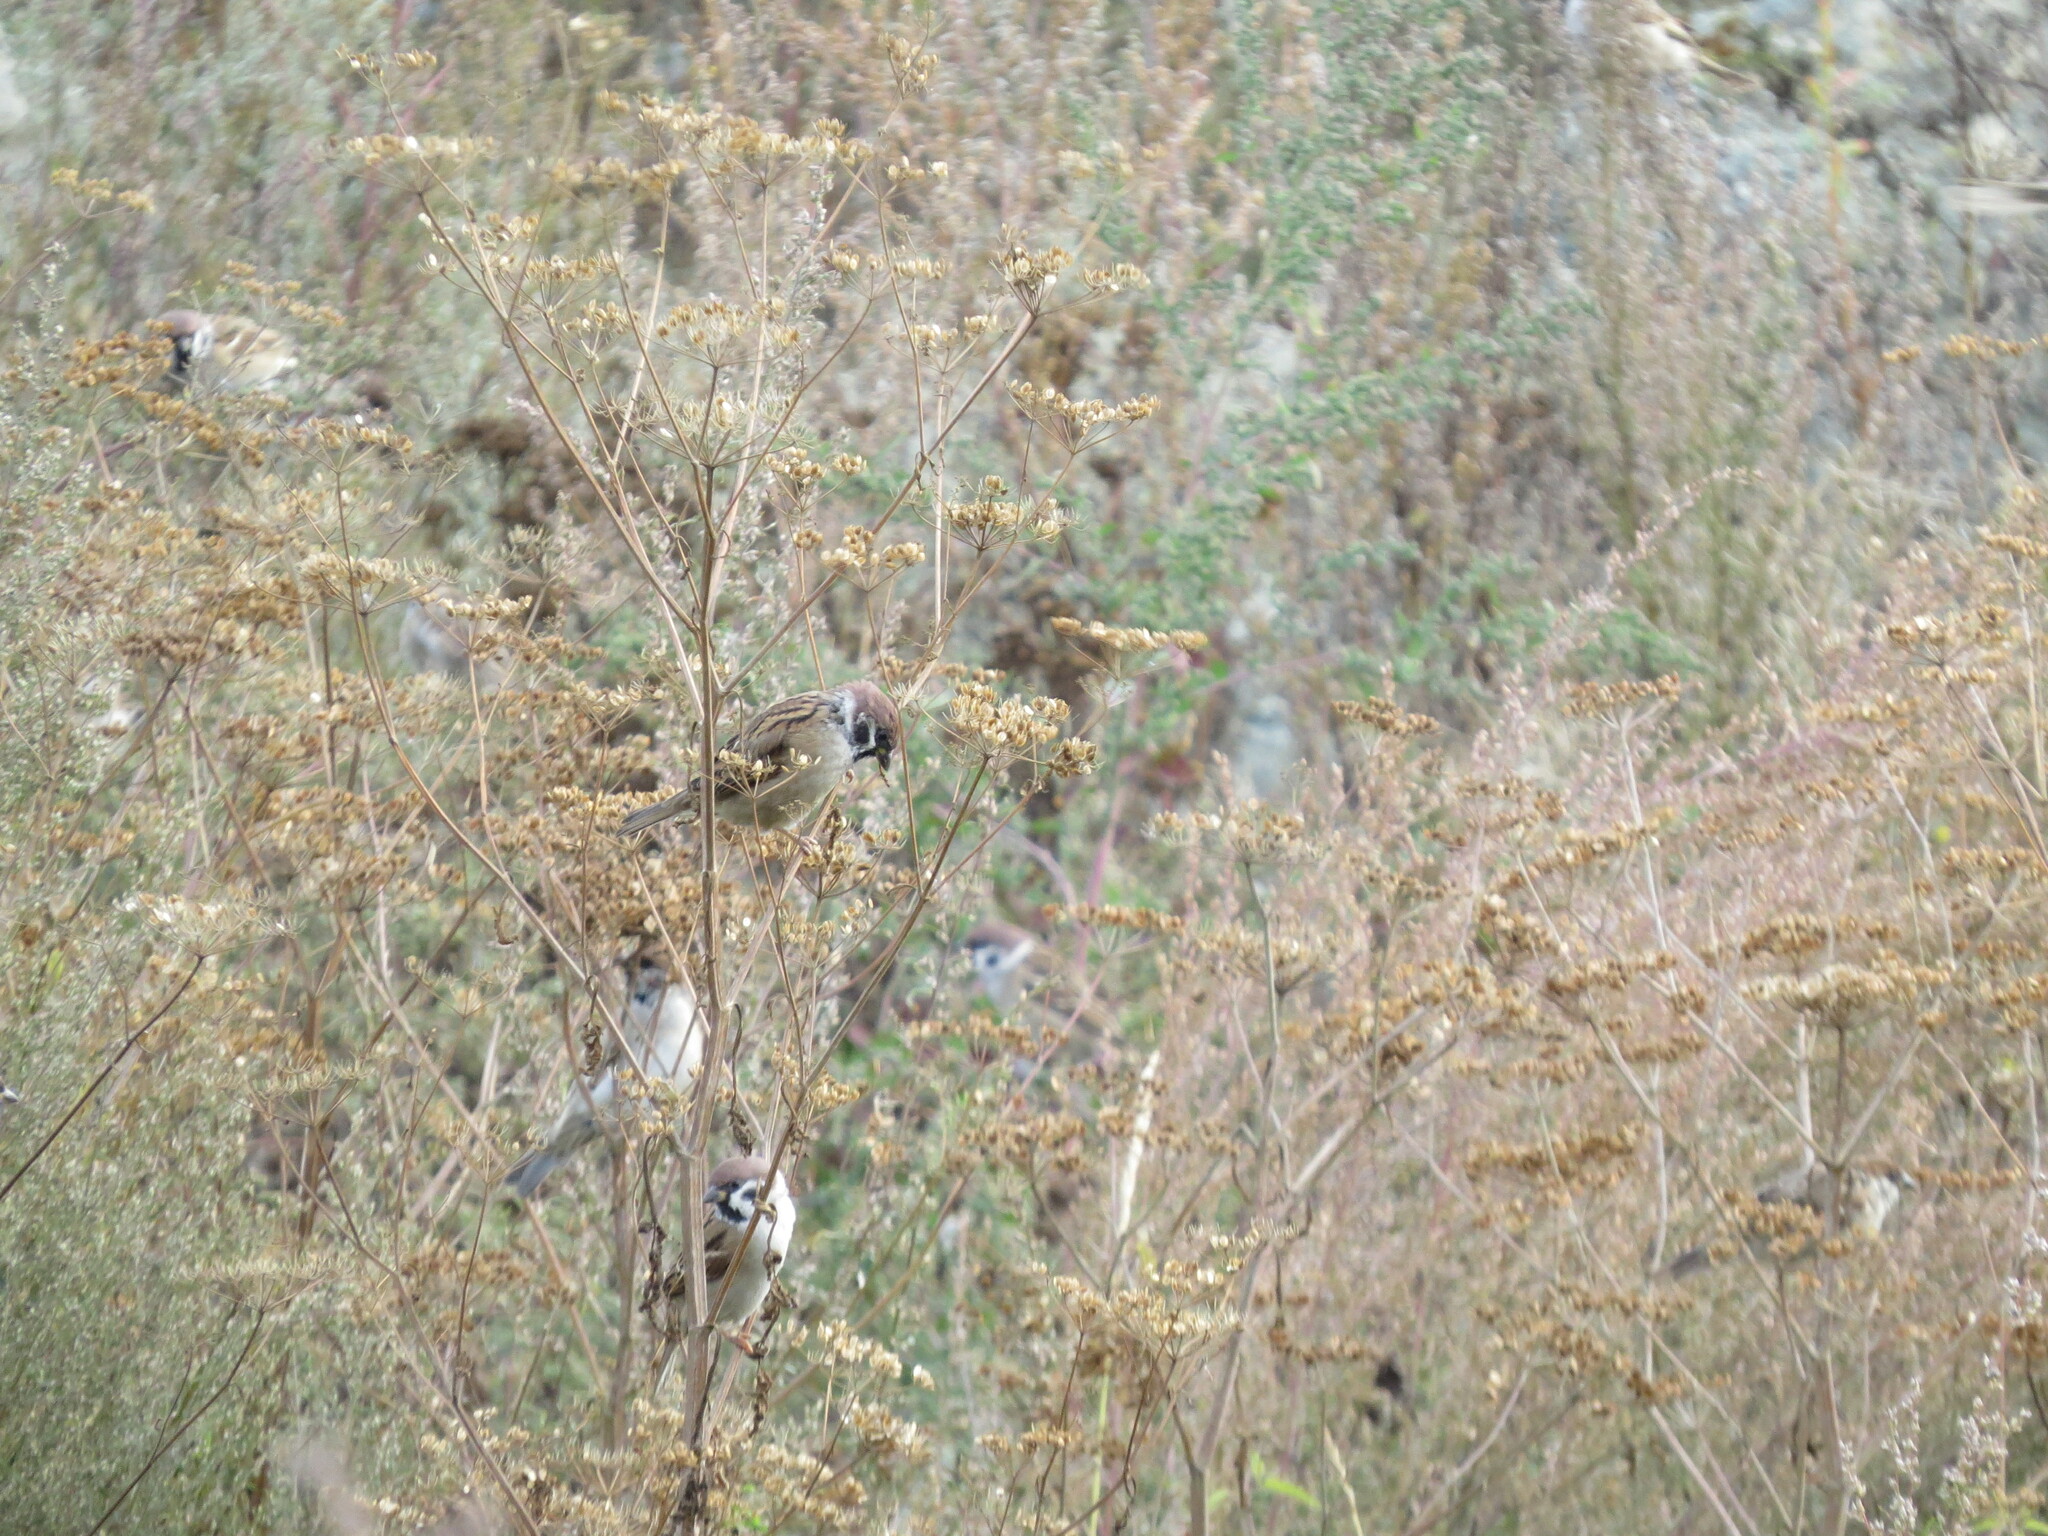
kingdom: Animalia
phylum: Chordata
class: Aves
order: Passeriformes
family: Passeridae
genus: Passer
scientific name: Passer montanus
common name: Eurasian tree sparrow
